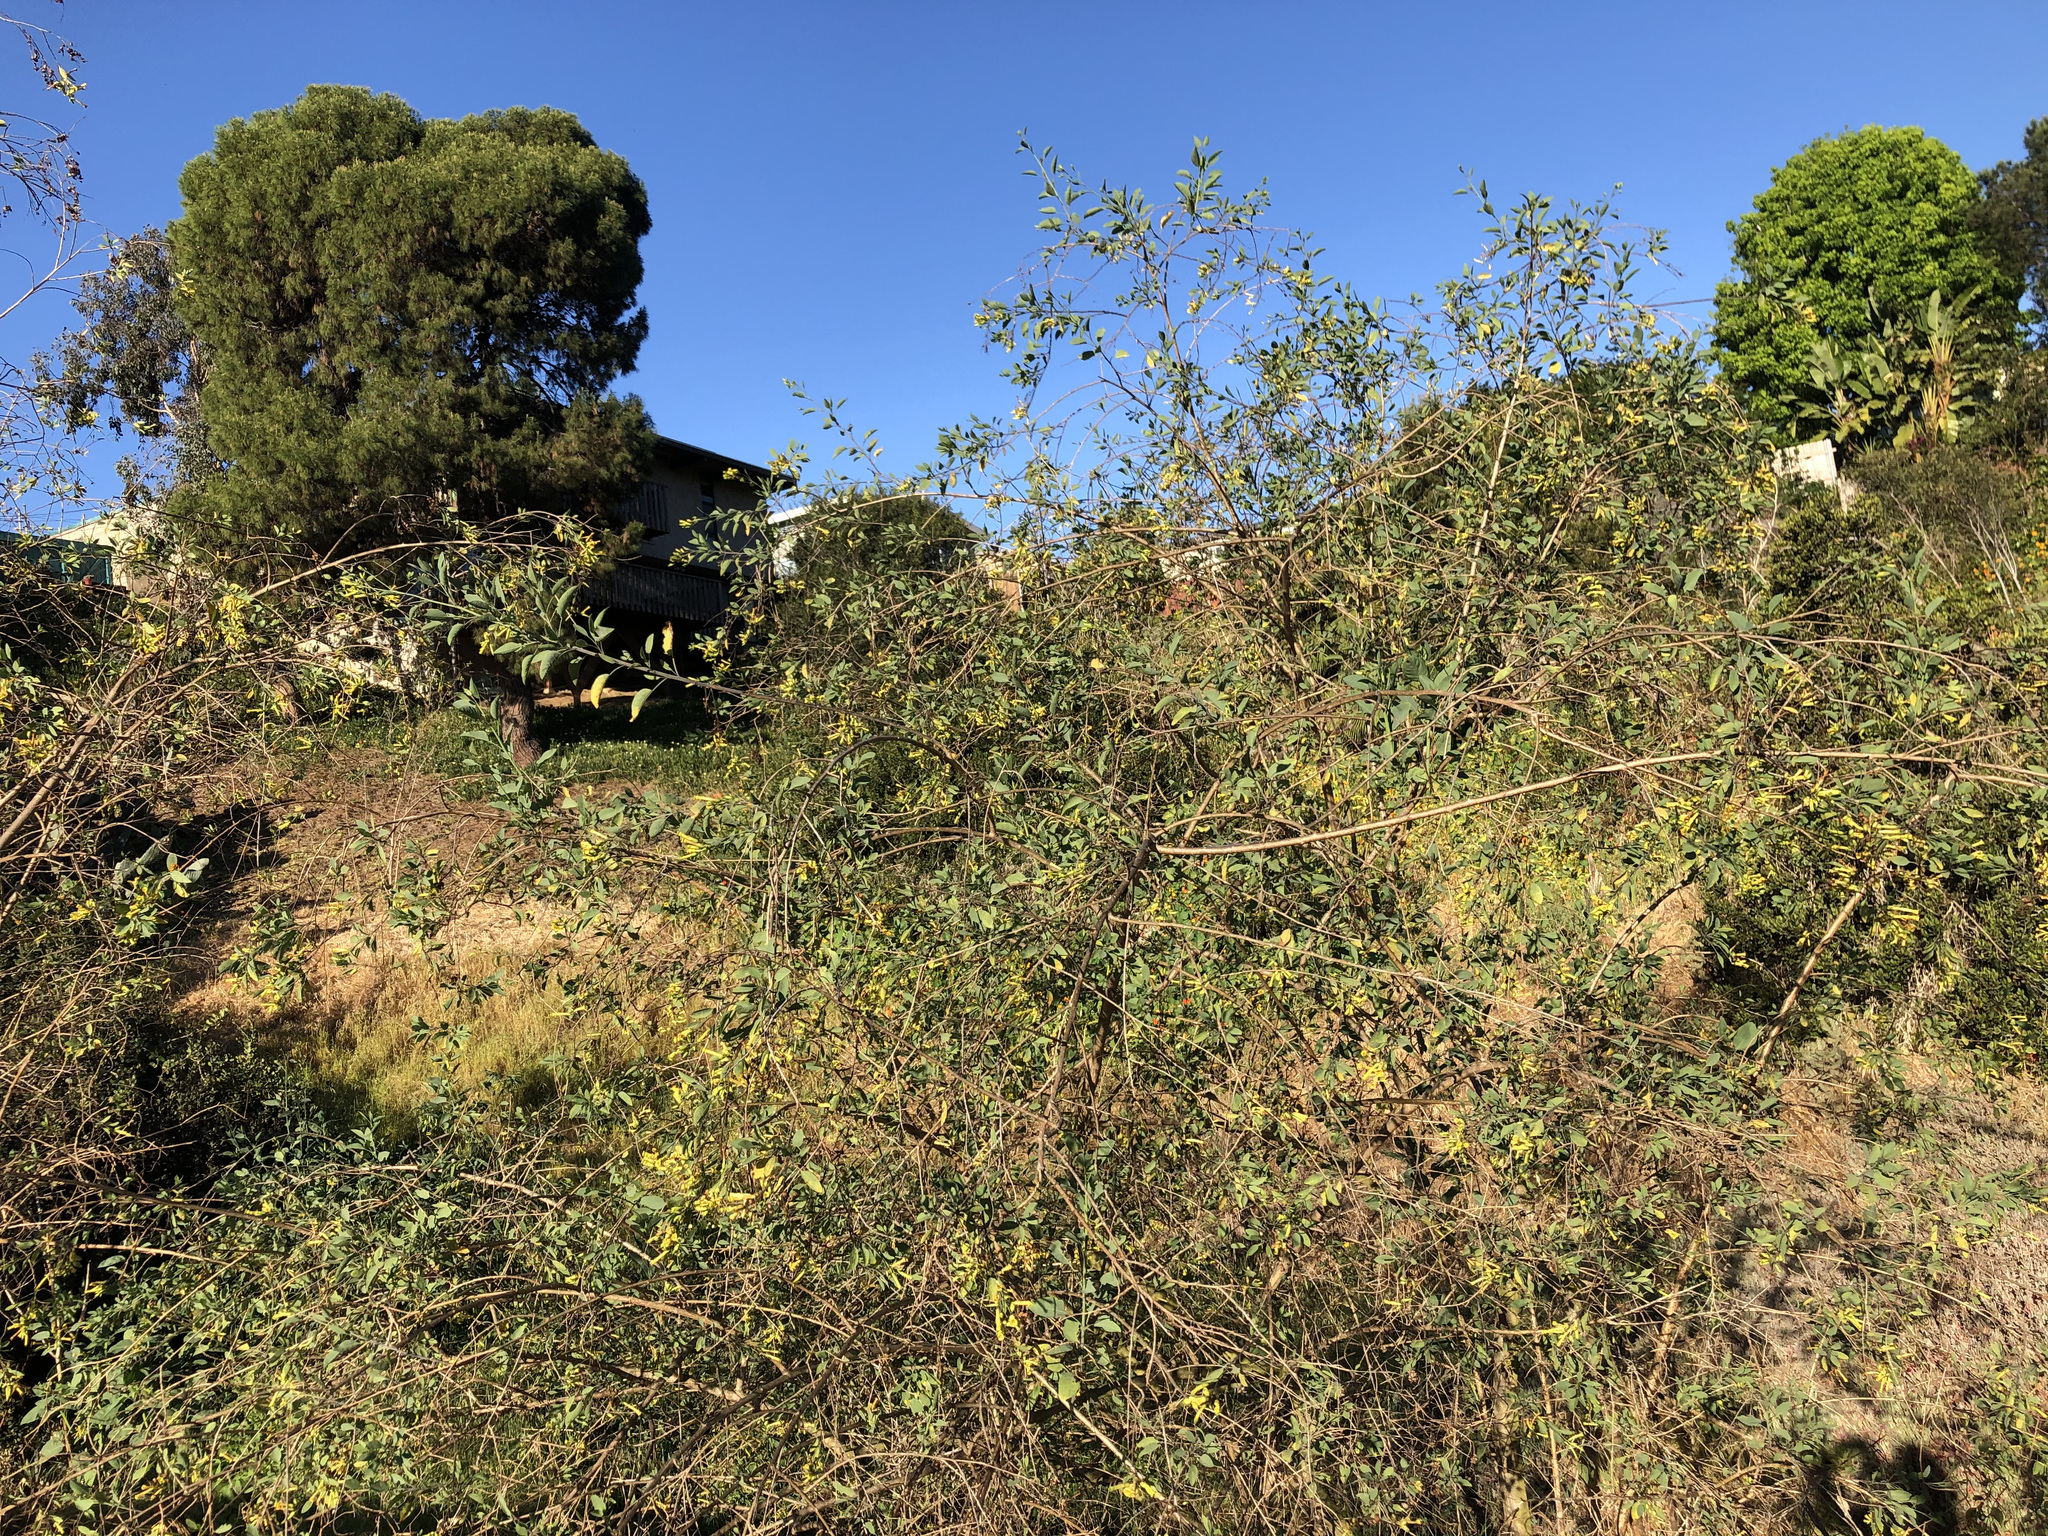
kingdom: Plantae
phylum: Tracheophyta
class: Magnoliopsida
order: Solanales
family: Solanaceae
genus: Nicotiana
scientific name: Nicotiana glauca
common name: Tree tobacco
